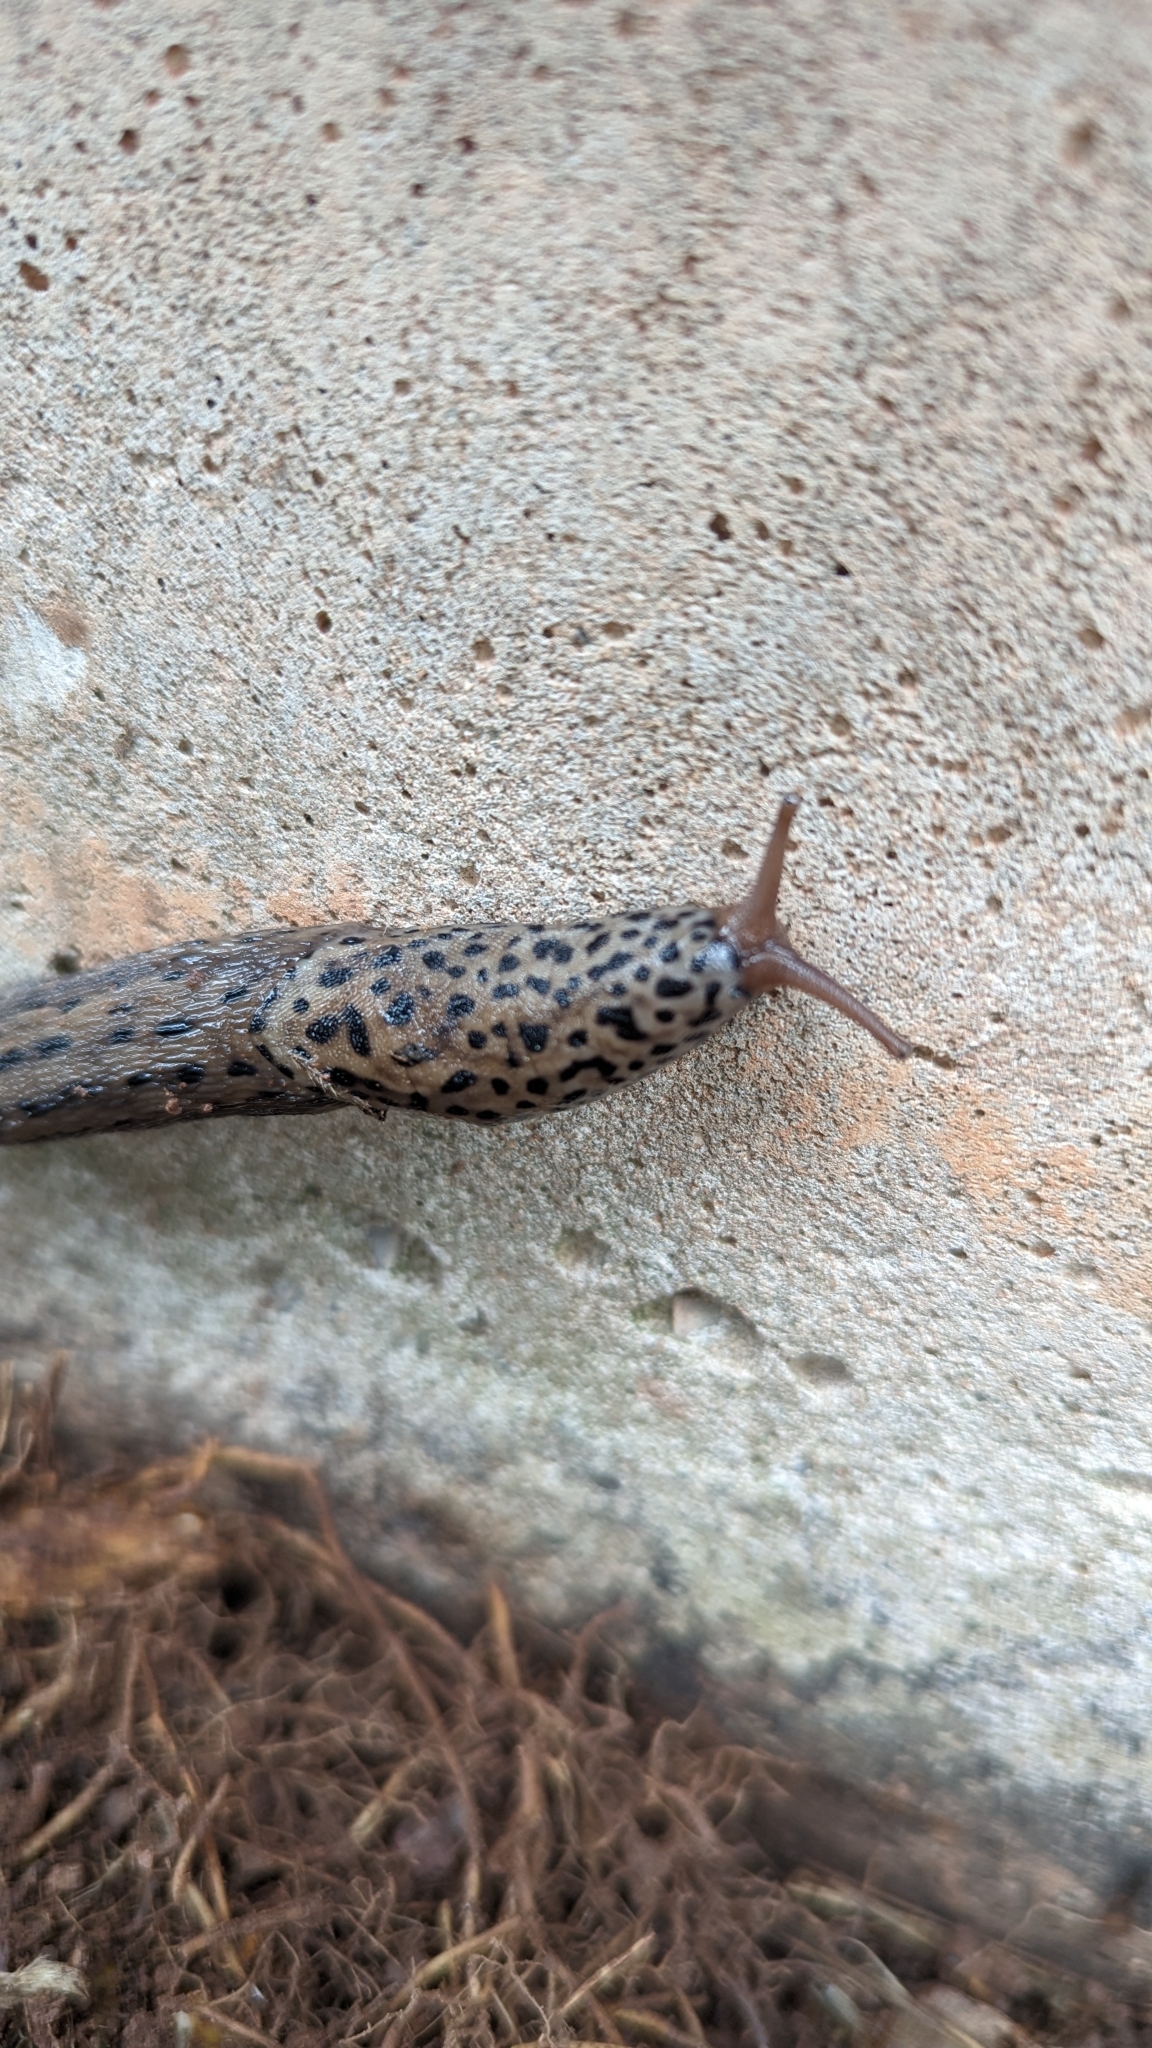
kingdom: Animalia
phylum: Mollusca
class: Gastropoda
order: Stylommatophora
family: Limacidae
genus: Limax
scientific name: Limax maximus
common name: Great grey slug
